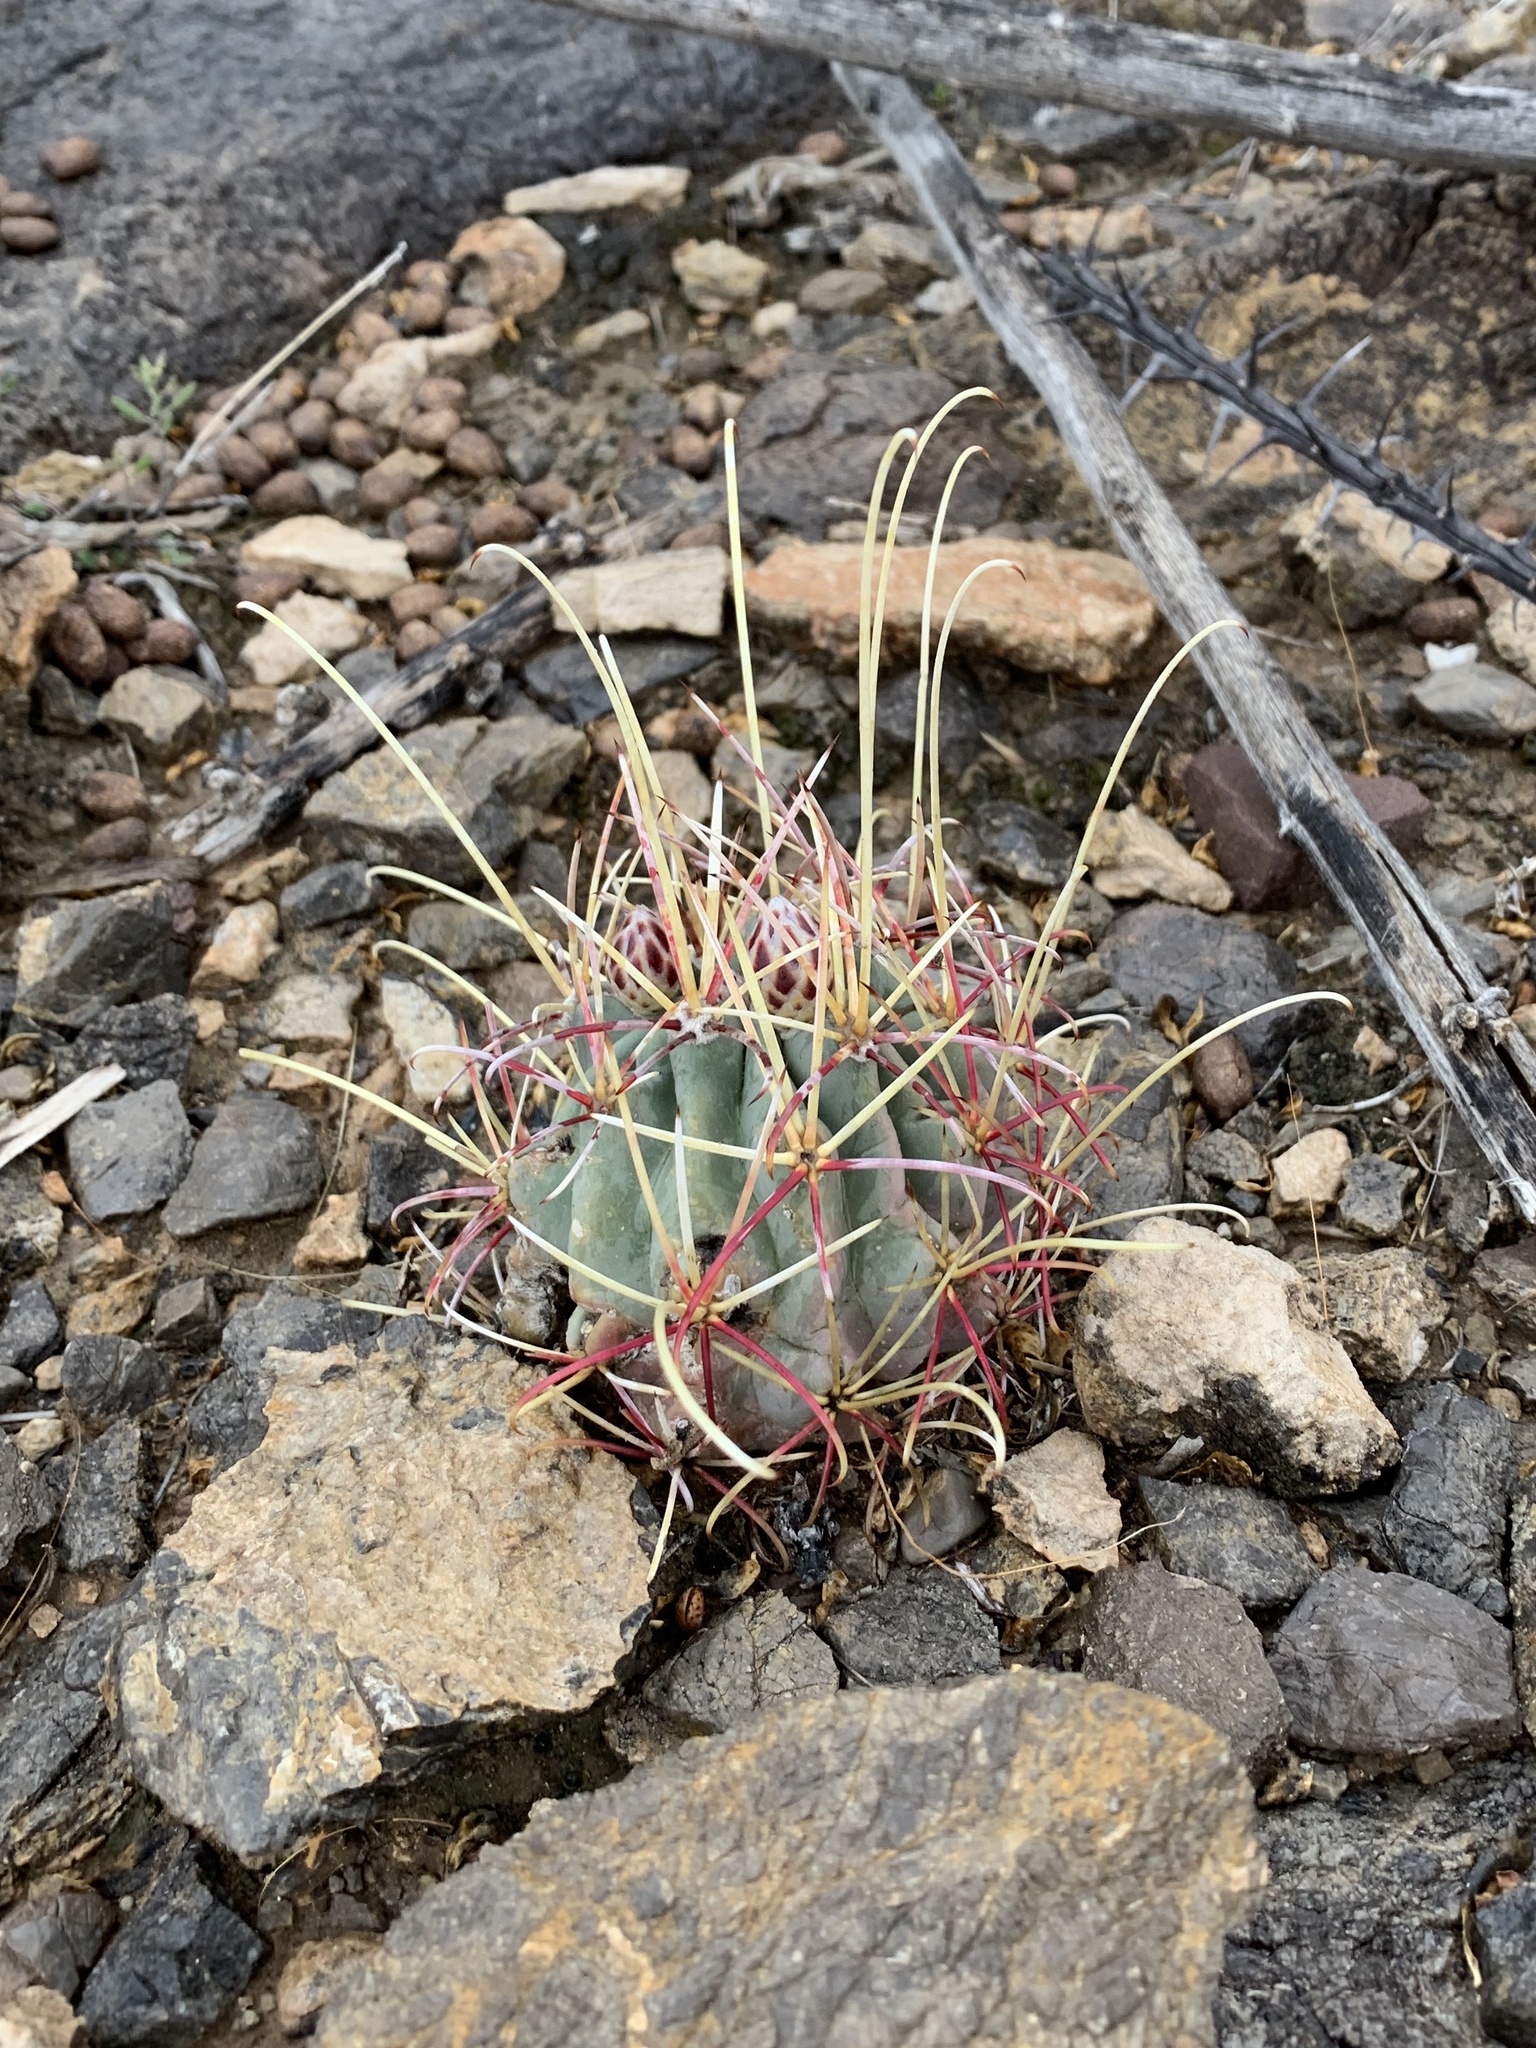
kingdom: Plantae
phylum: Tracheophyta
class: Magnoliopsida
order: Caryophyllales
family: Cactaceae
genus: Ferocactus
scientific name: Ferocactus uncinatus
